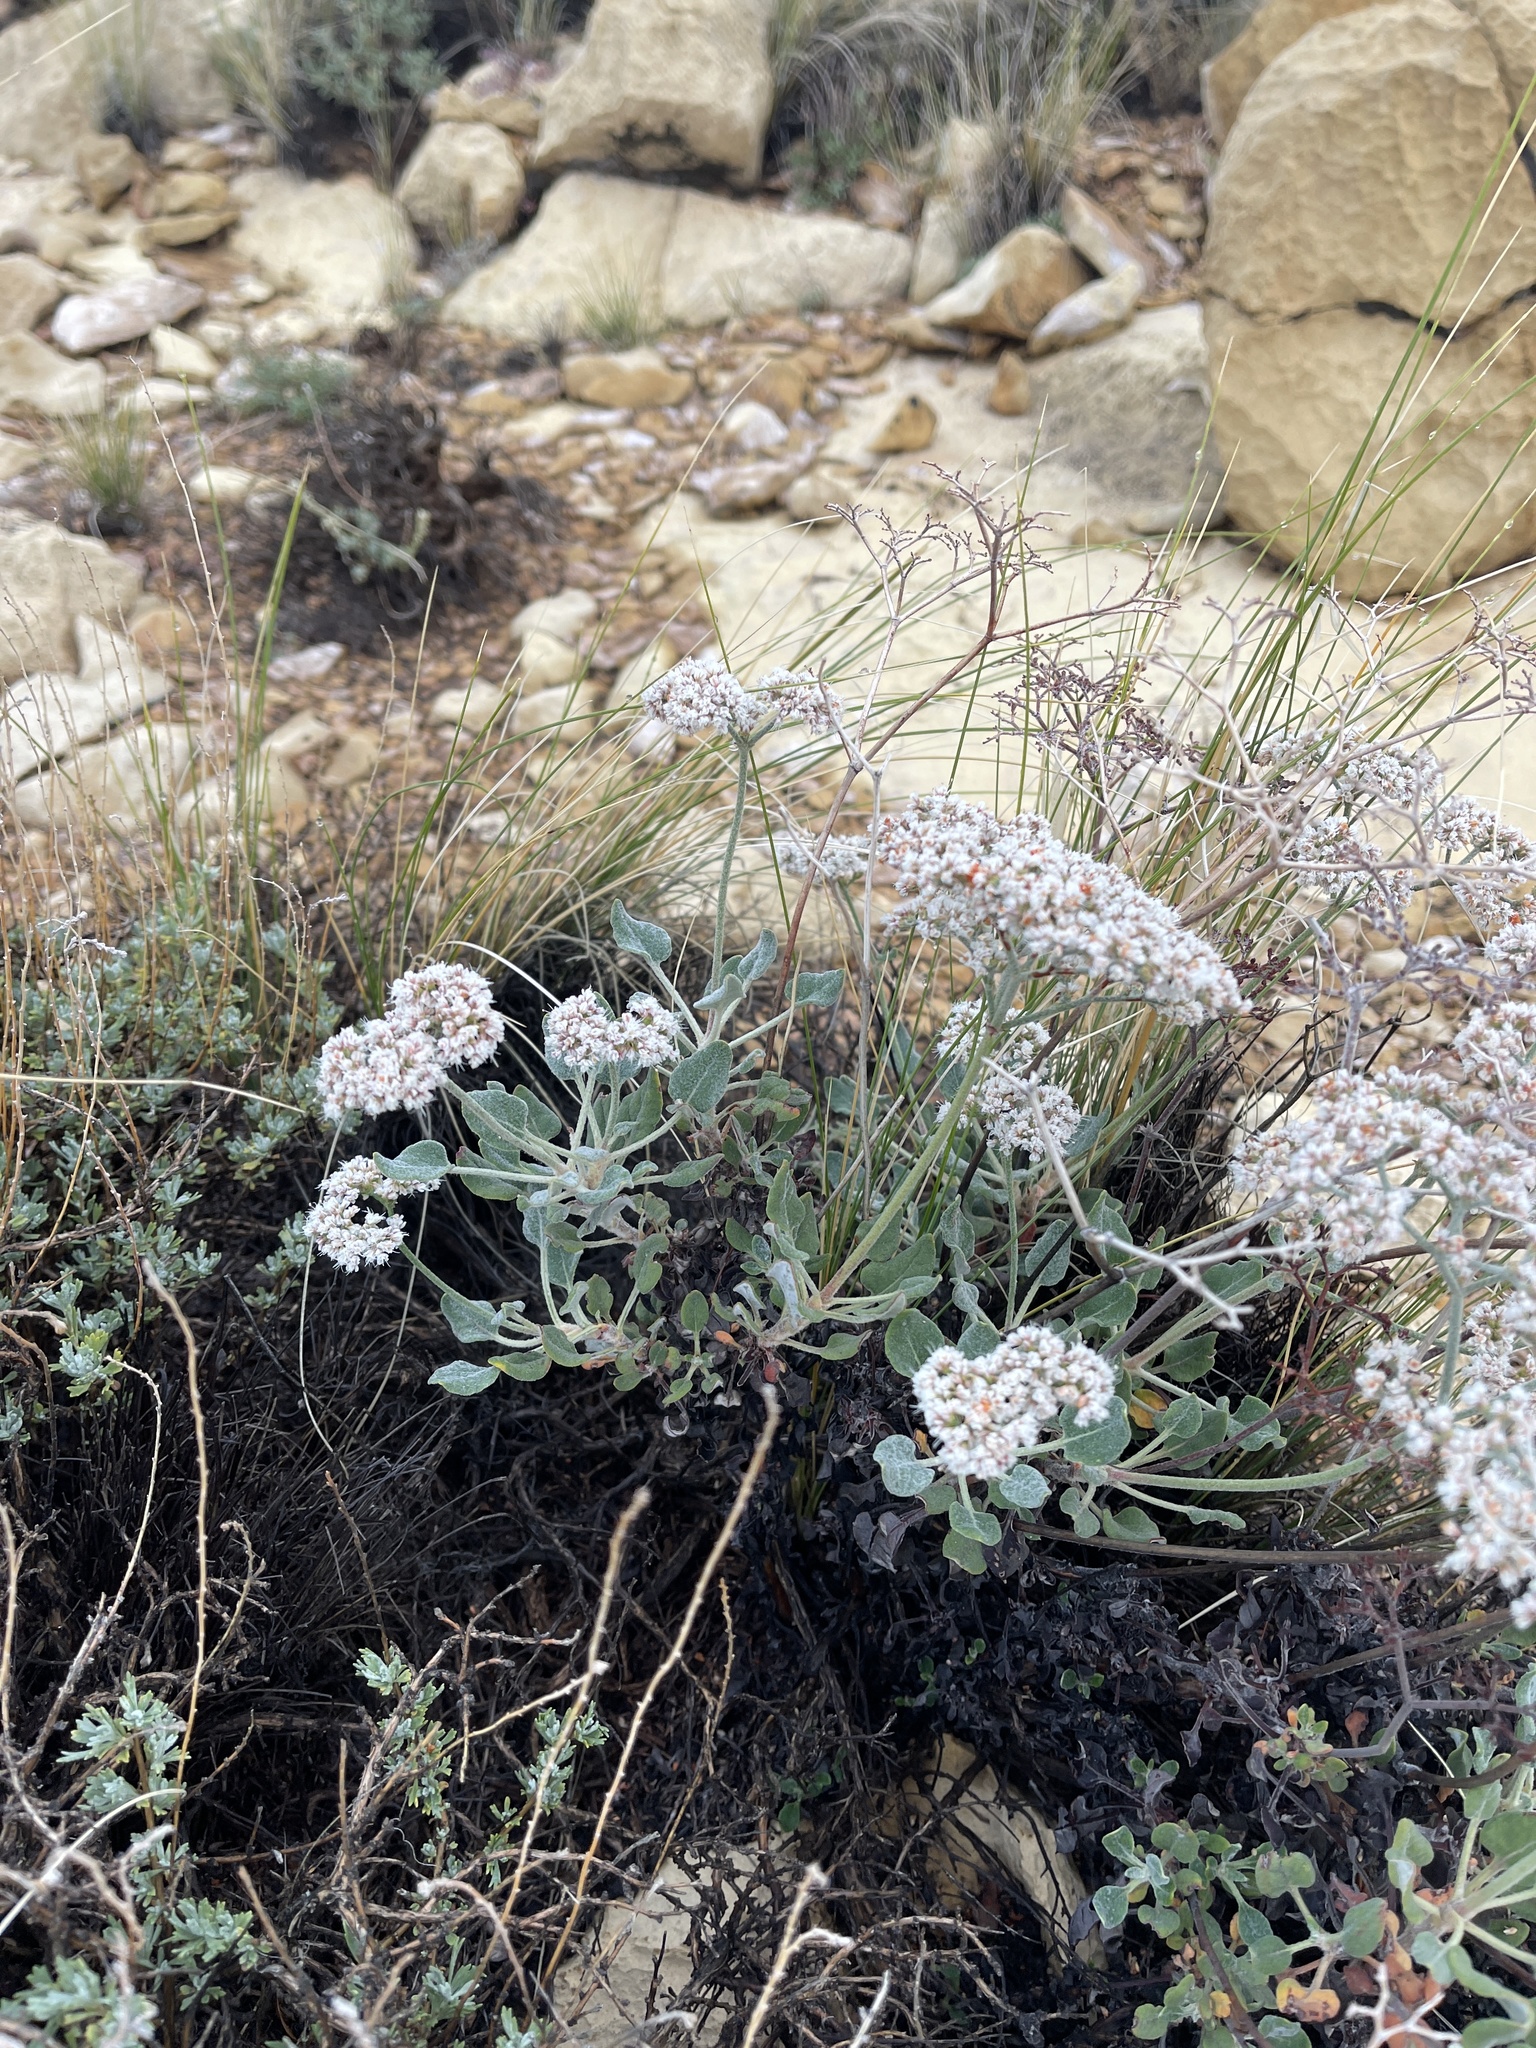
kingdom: Plantae
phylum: Tracheophyta
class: Magnoliopsida
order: Caryophyllales
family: Polygonaceae
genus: Eriogonum
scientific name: Eriogonum corymbosum
